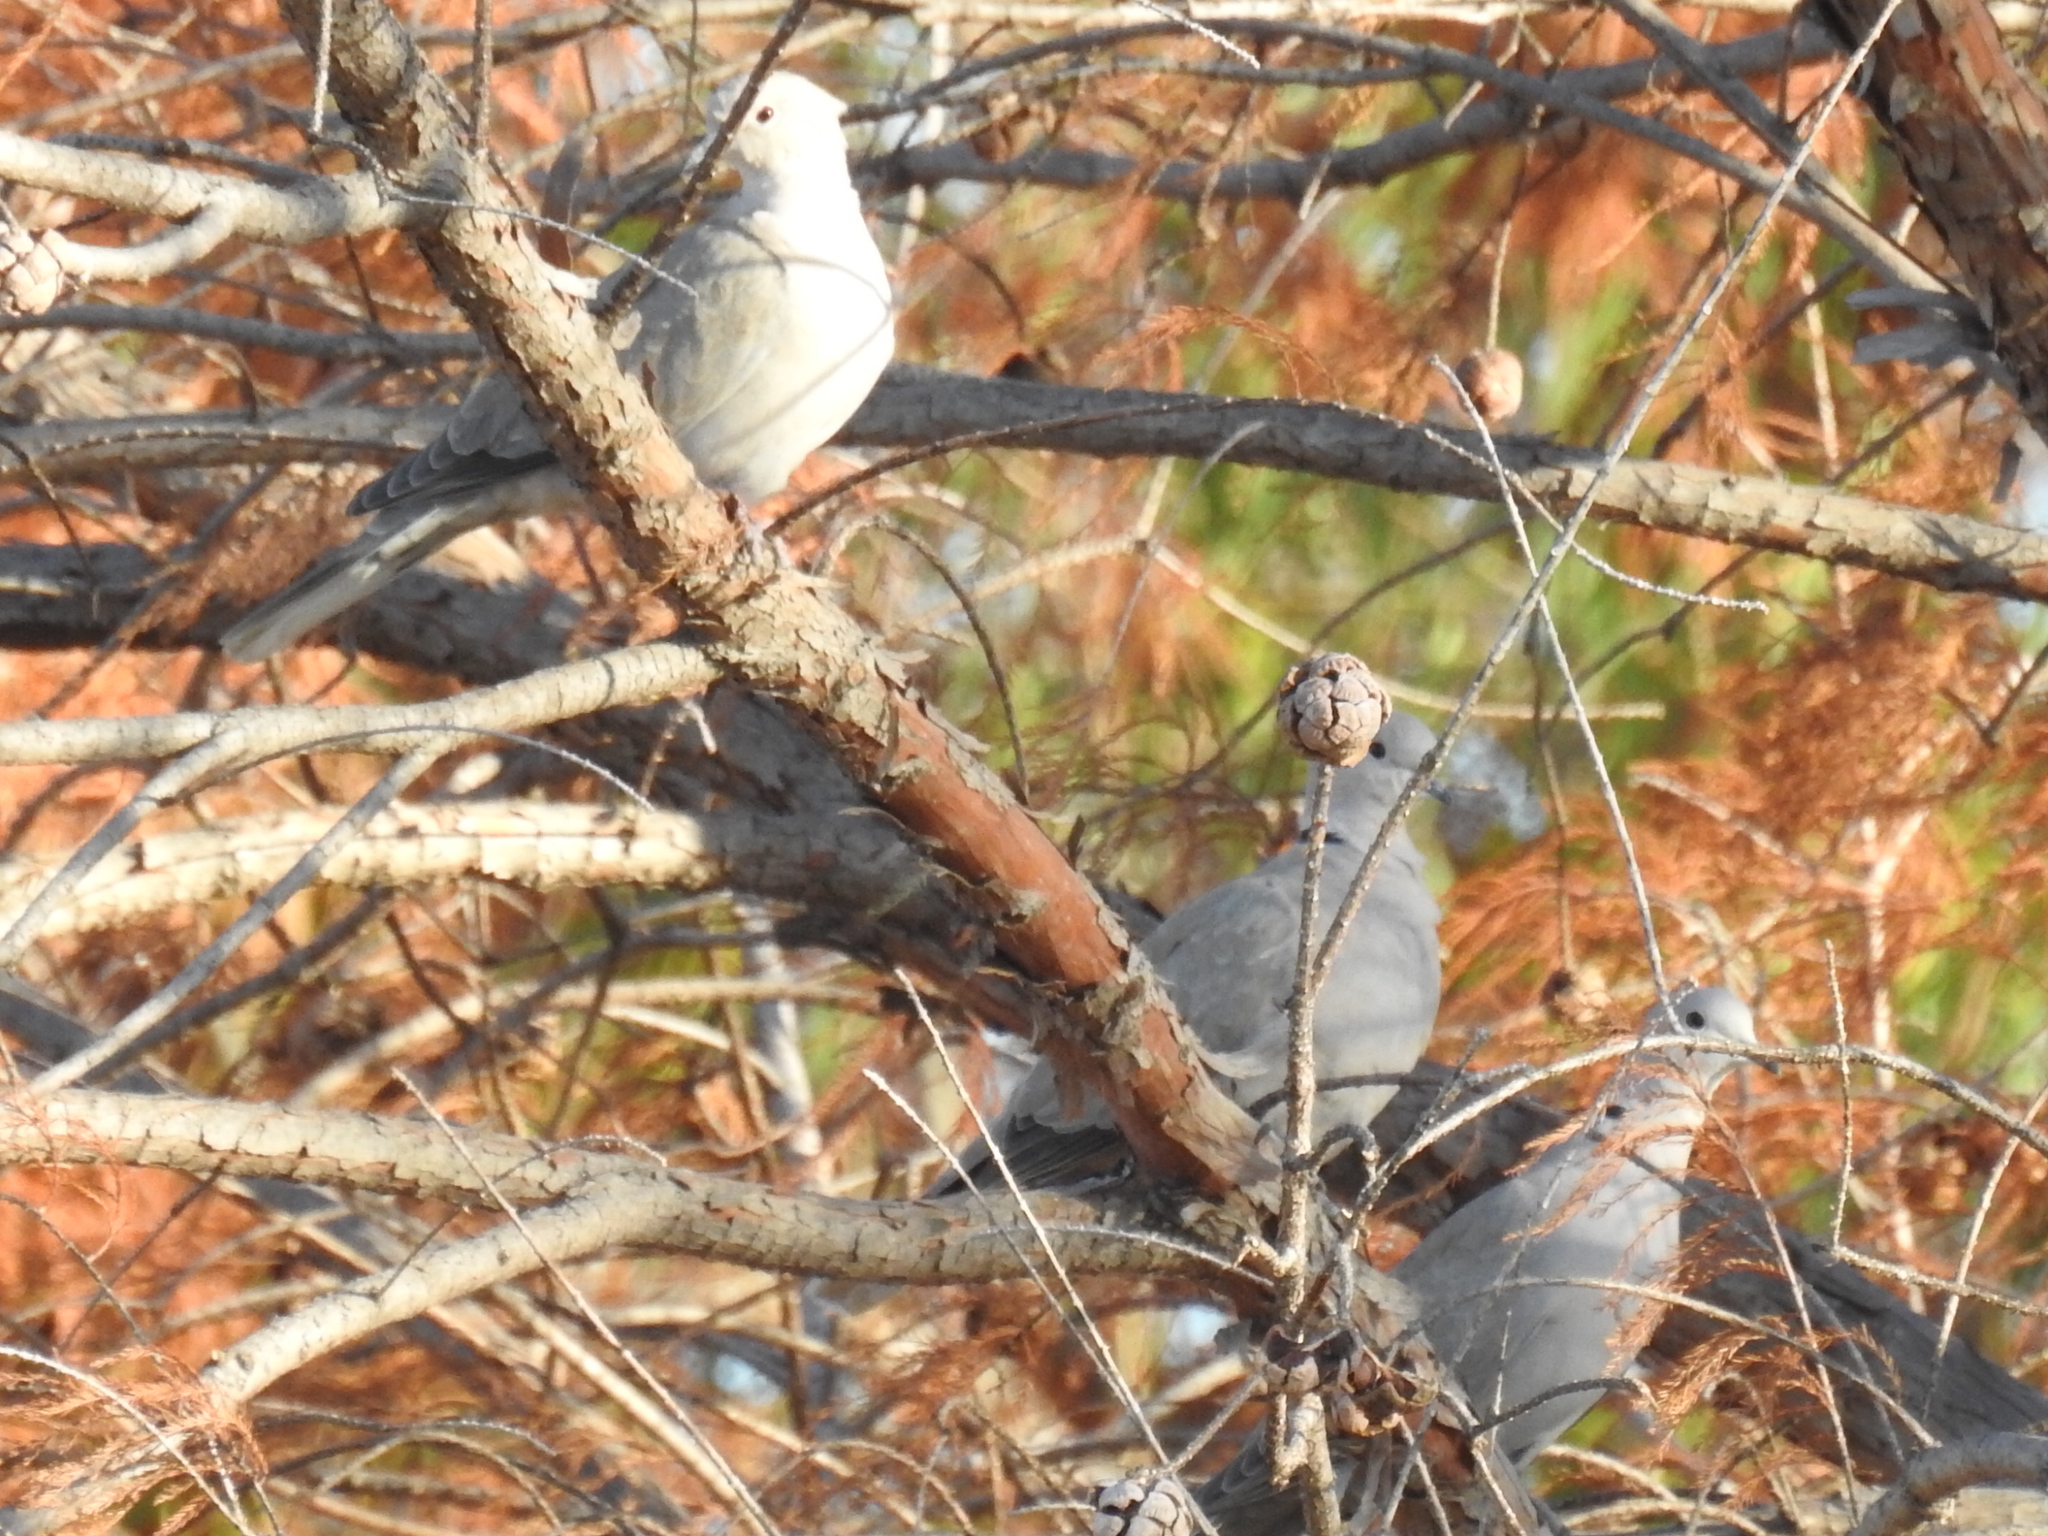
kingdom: Animalia
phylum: Chordata
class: Aves
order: Columbiformes
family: Columbidae
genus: Streptopelia
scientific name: Streptopelia decaocto
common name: Eurasian collared dove
